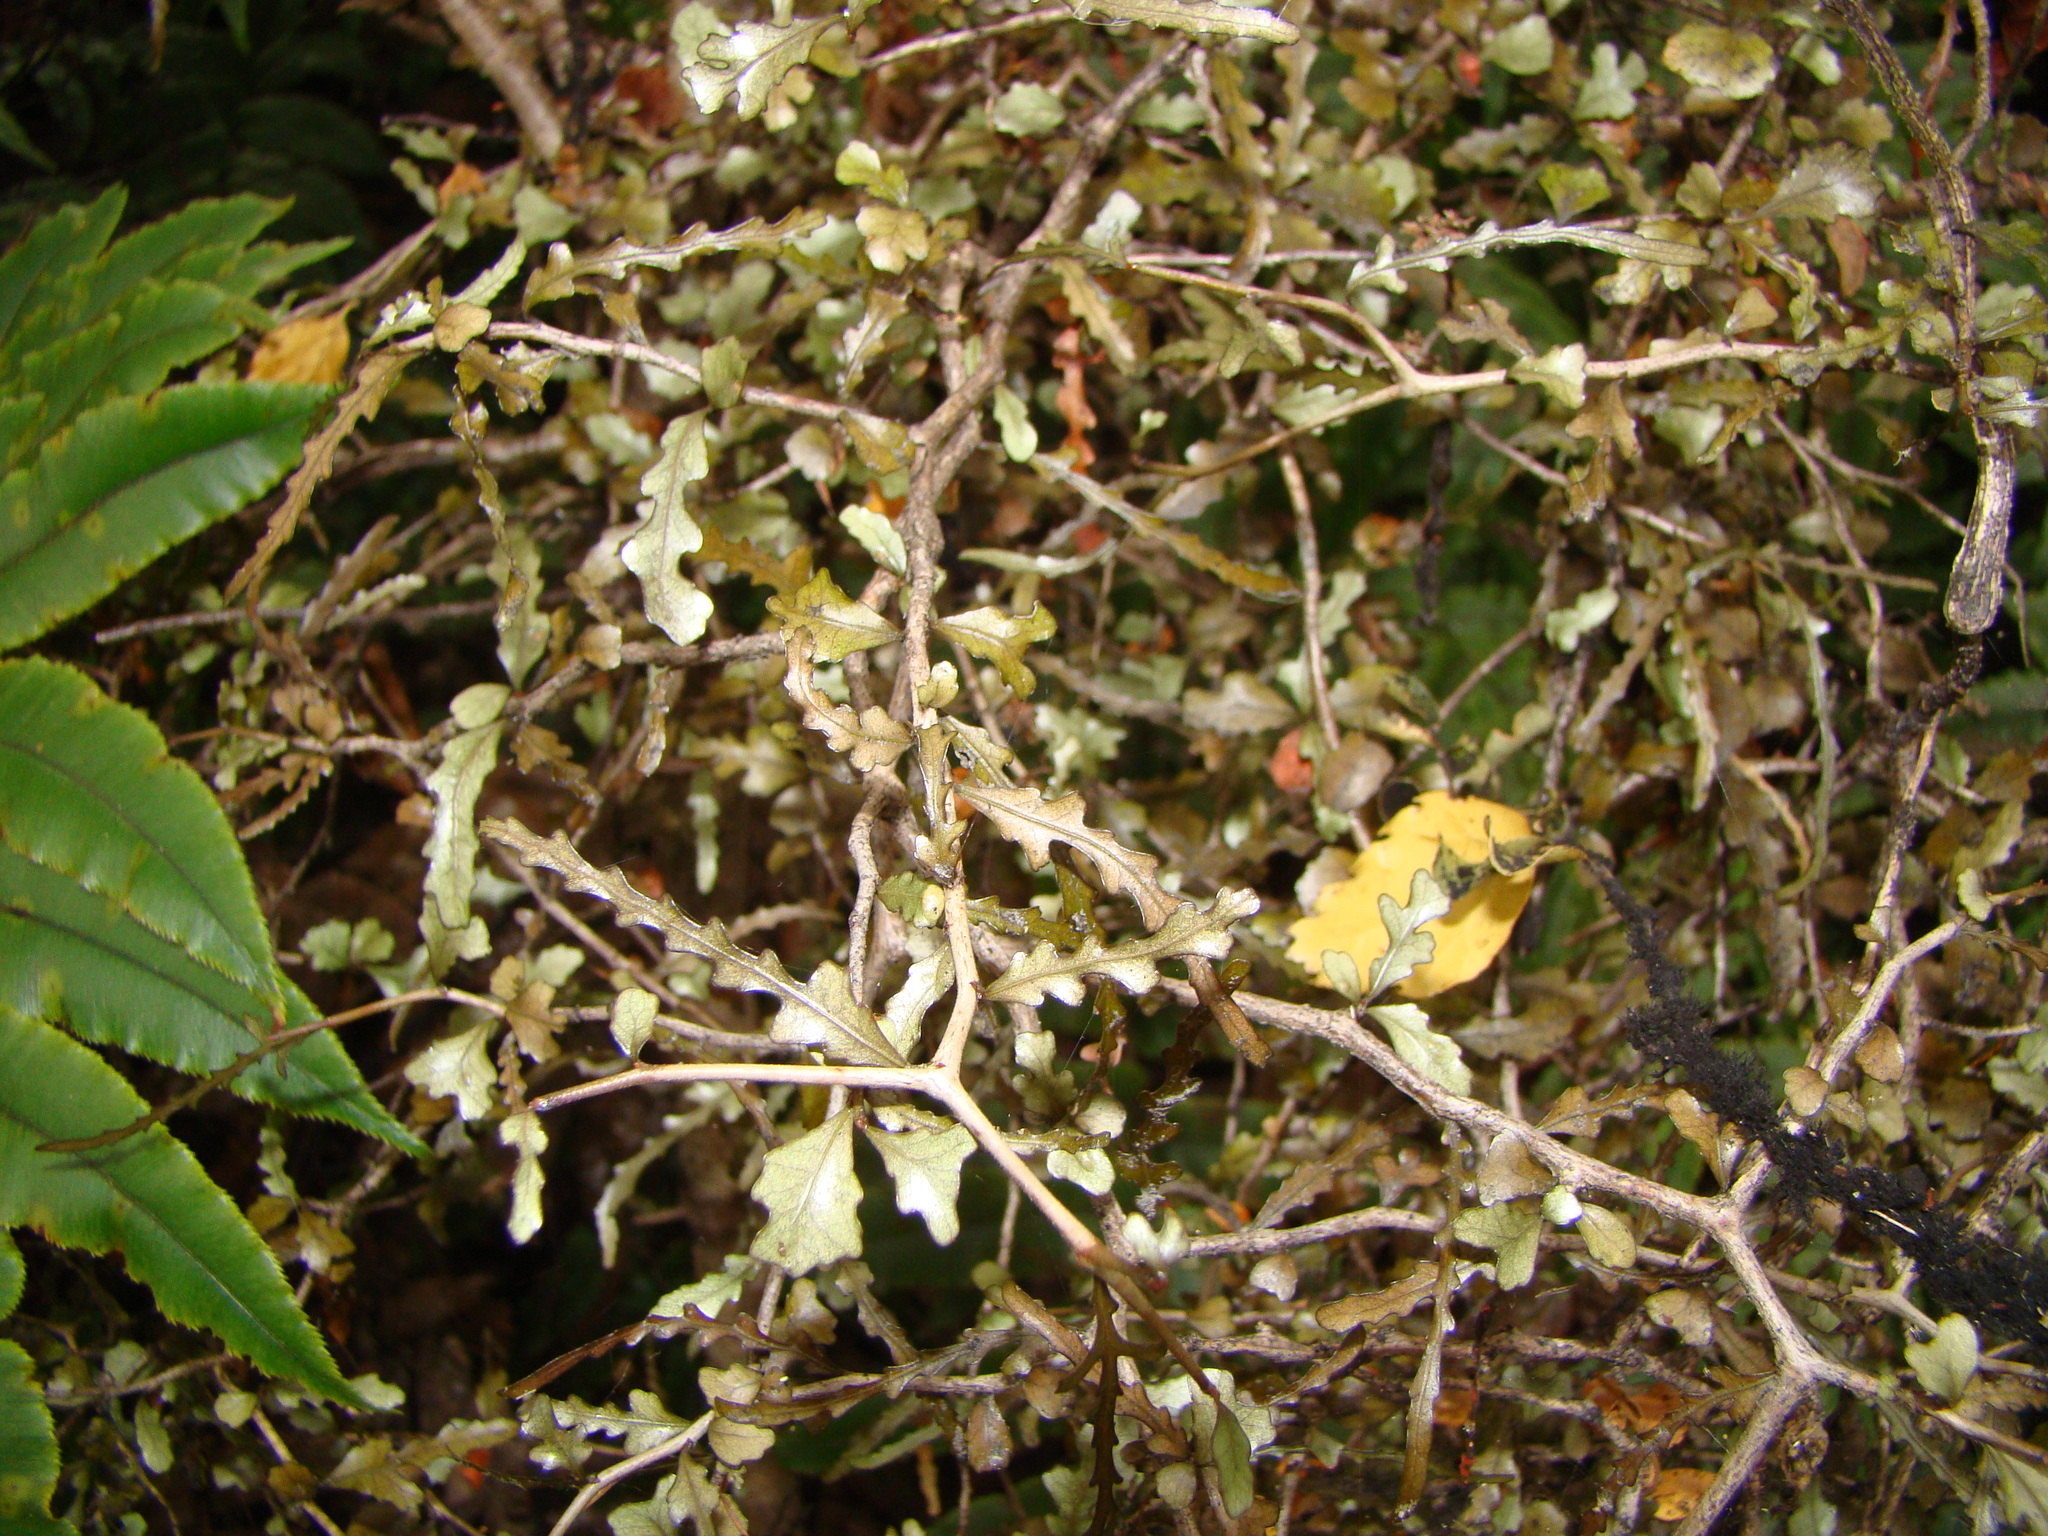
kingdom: Plantae
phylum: Tracheophyta
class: Magnoliopsida
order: Oxalidales
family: Elaeocarpaceae
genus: Elaeocarpus
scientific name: Elaeocarpus hookerianus
